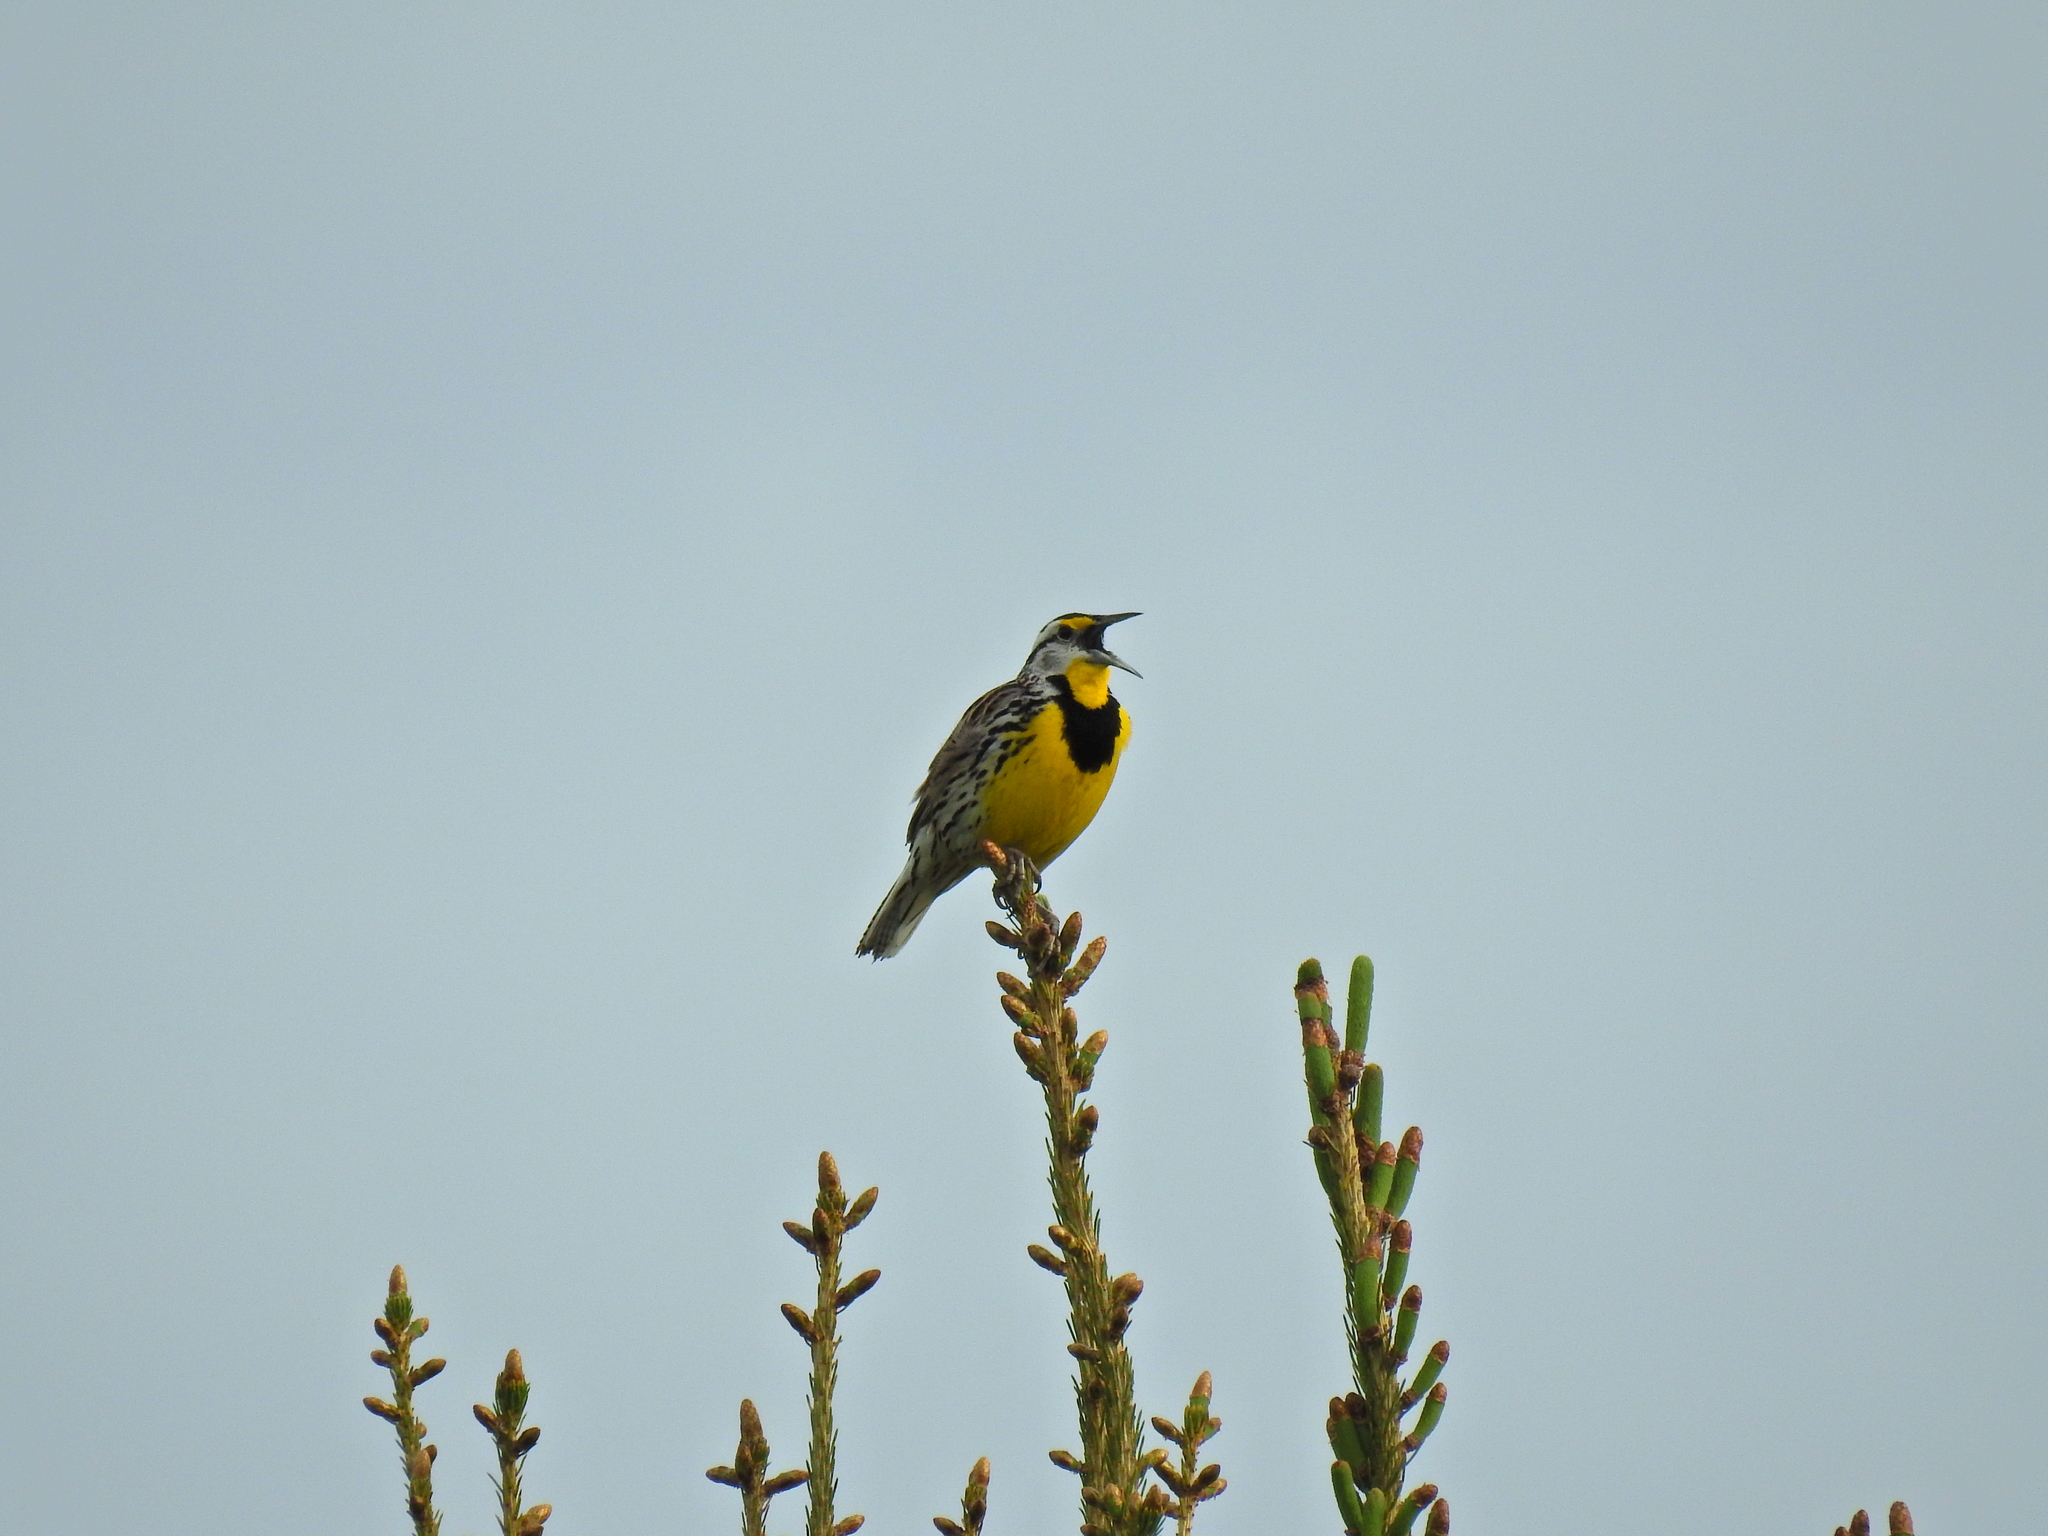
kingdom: Animalia
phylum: Chordata
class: Aves
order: Passeriformes
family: Icteridae
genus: Sturnella
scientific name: Sturnella magna
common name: Eastern meadowlark
